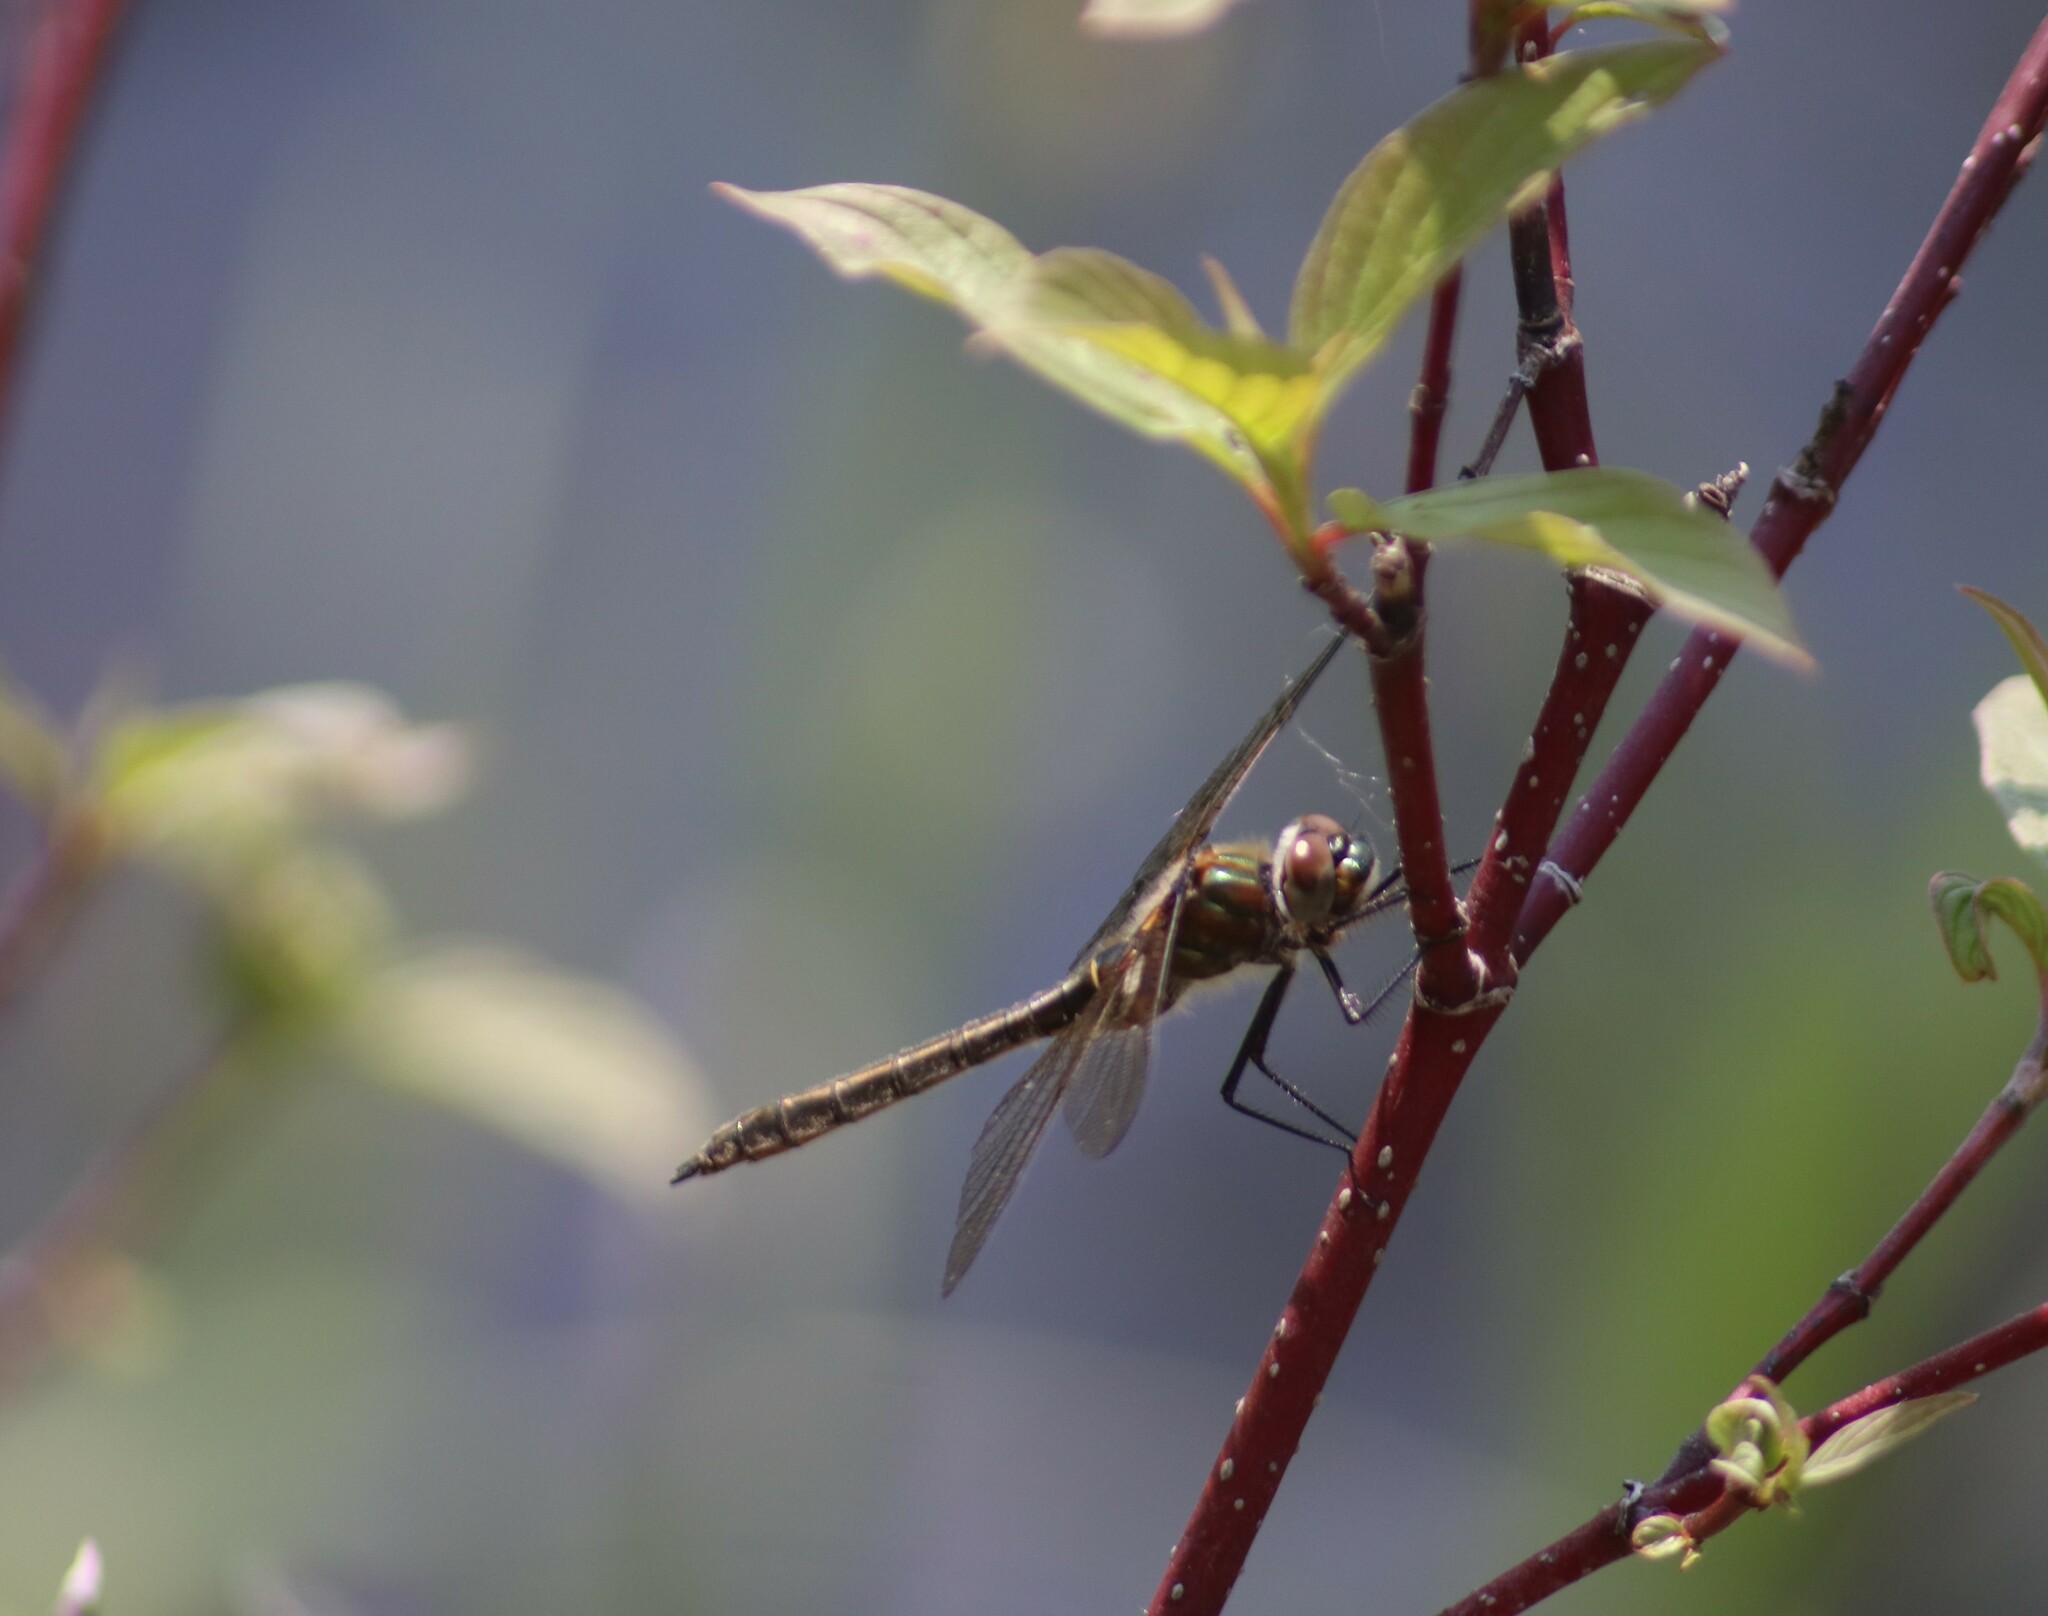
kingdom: Animalia
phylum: Arthropoda
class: Insecta
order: Odonata
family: Corduliidae
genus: Cordulia
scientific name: Cordulia shurtleffii
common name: American emerald
